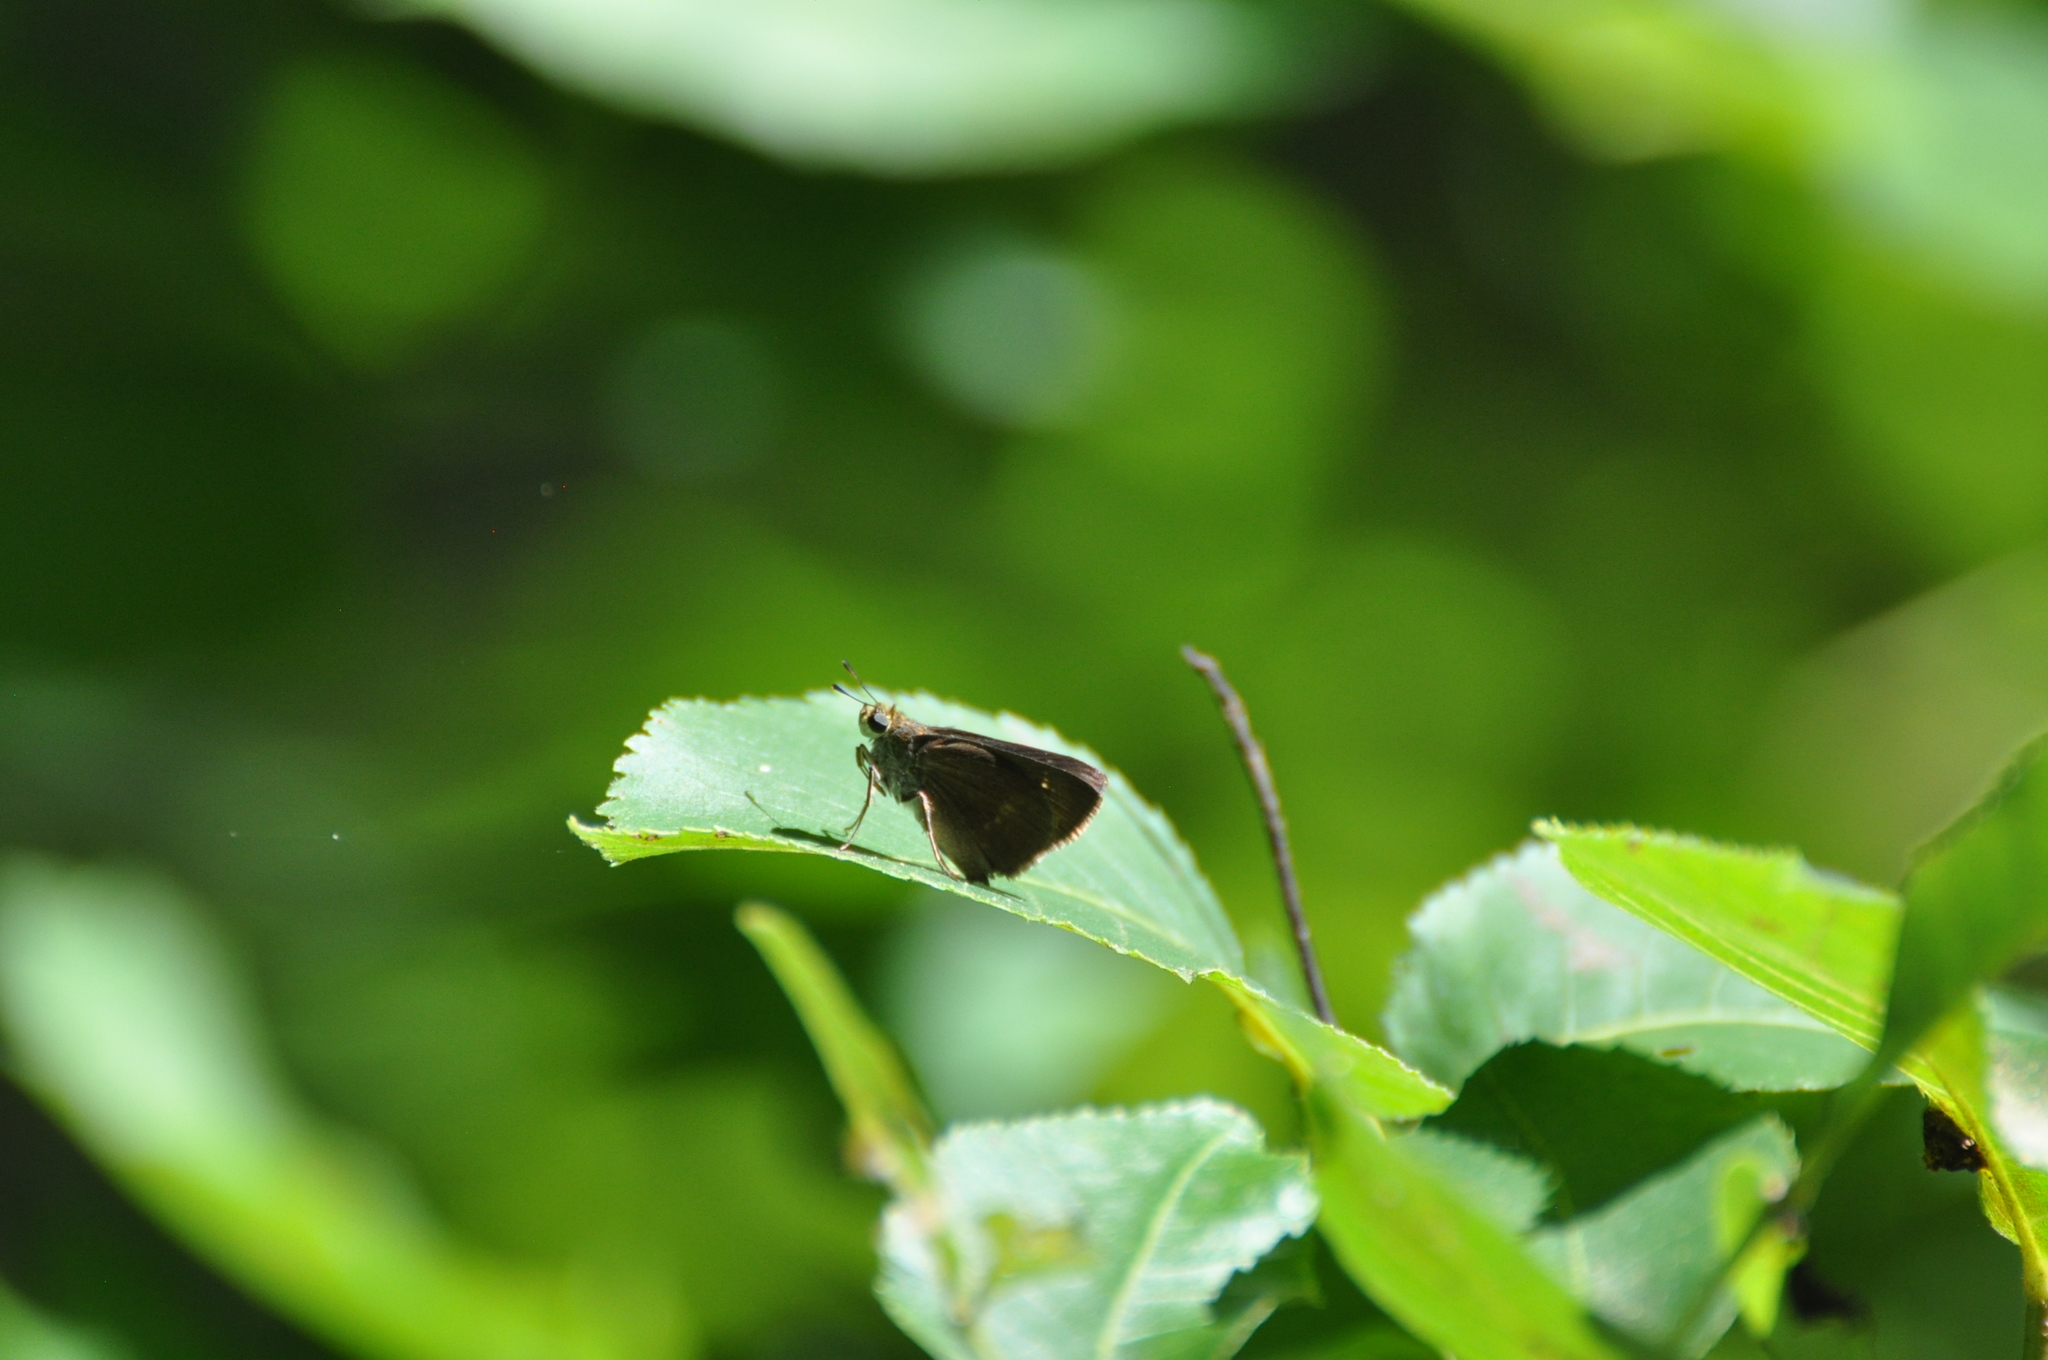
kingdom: Animalia
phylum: Arthropoda
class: Insecta
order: Lepidoptera
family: Hesperiidae
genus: Polites
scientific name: Polites egeremet
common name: Northern broken-dash
